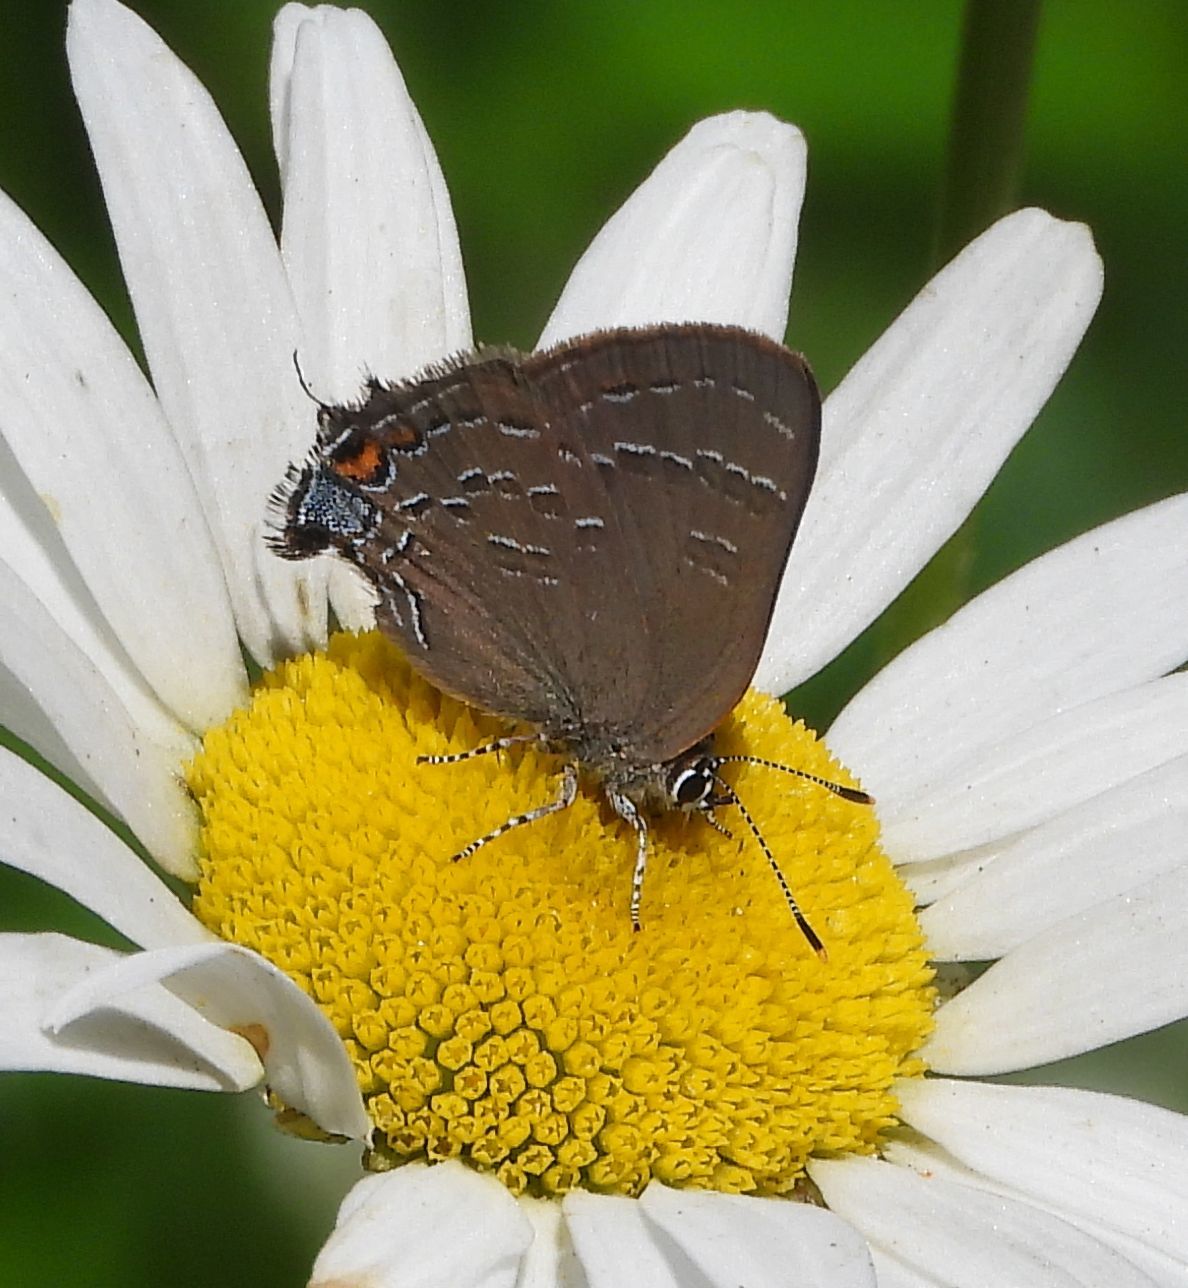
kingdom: Animalia
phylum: Arthropoda
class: Insecta
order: Lepidoptera
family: Lycaenidae
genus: Satyrium
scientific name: Satyrium calanus
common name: Banded hairstreak
